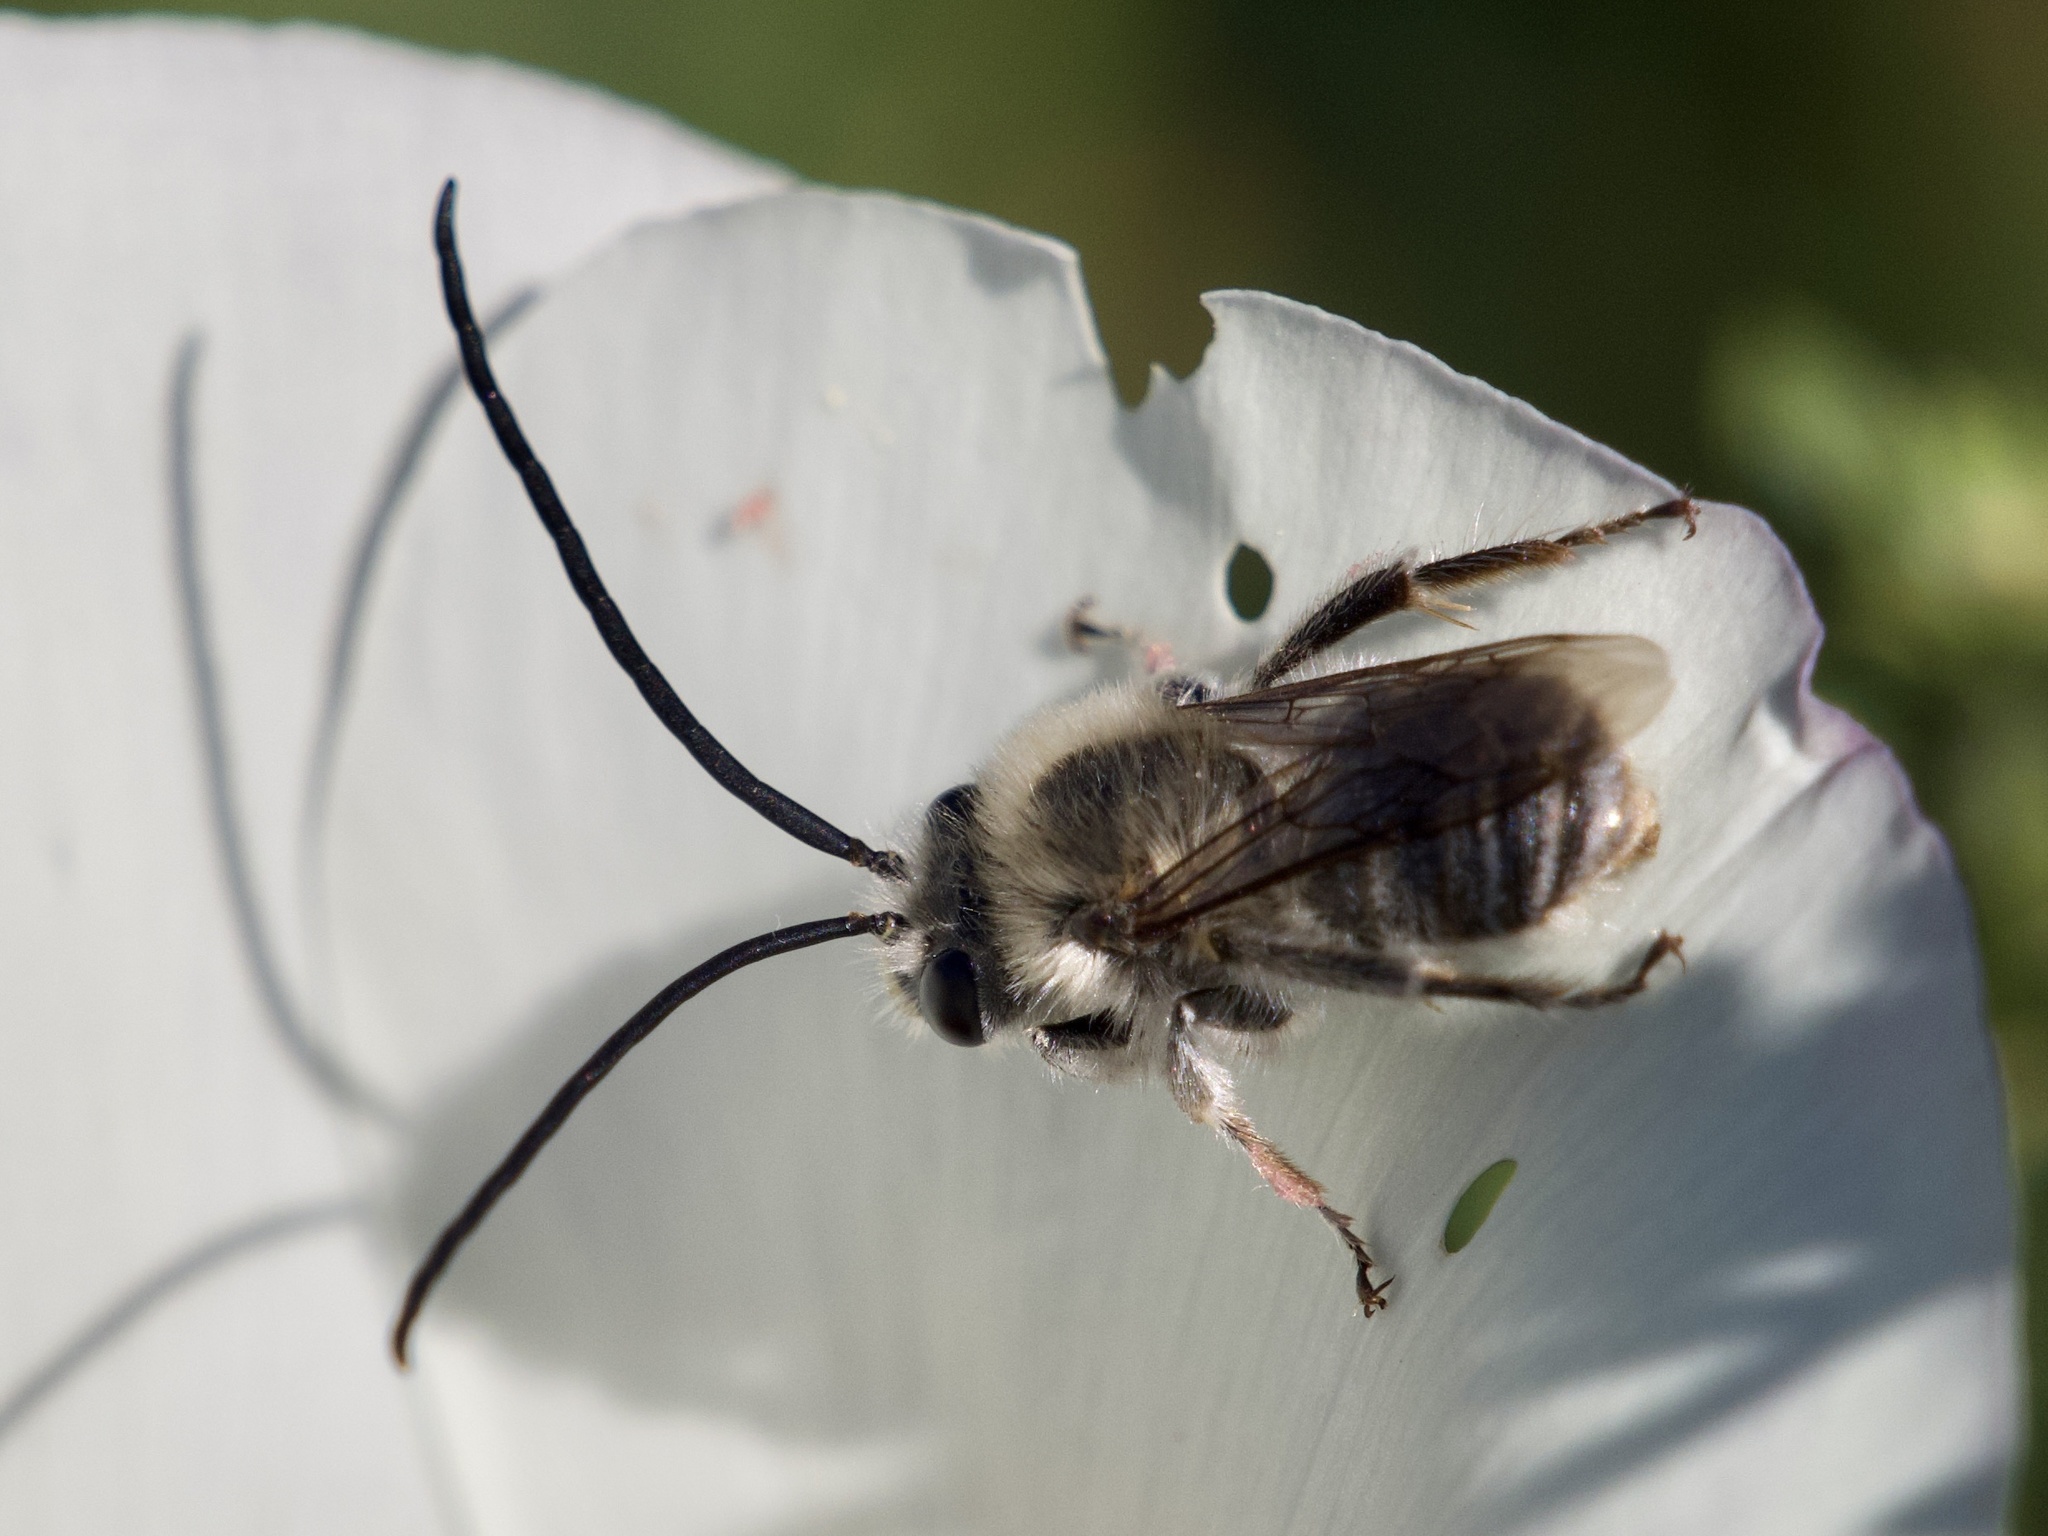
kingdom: Animalia
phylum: Arthropoda
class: Insecta
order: Hymenoptera
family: Apidae
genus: Tetraloniella
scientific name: Tetraloniella davidsoni
